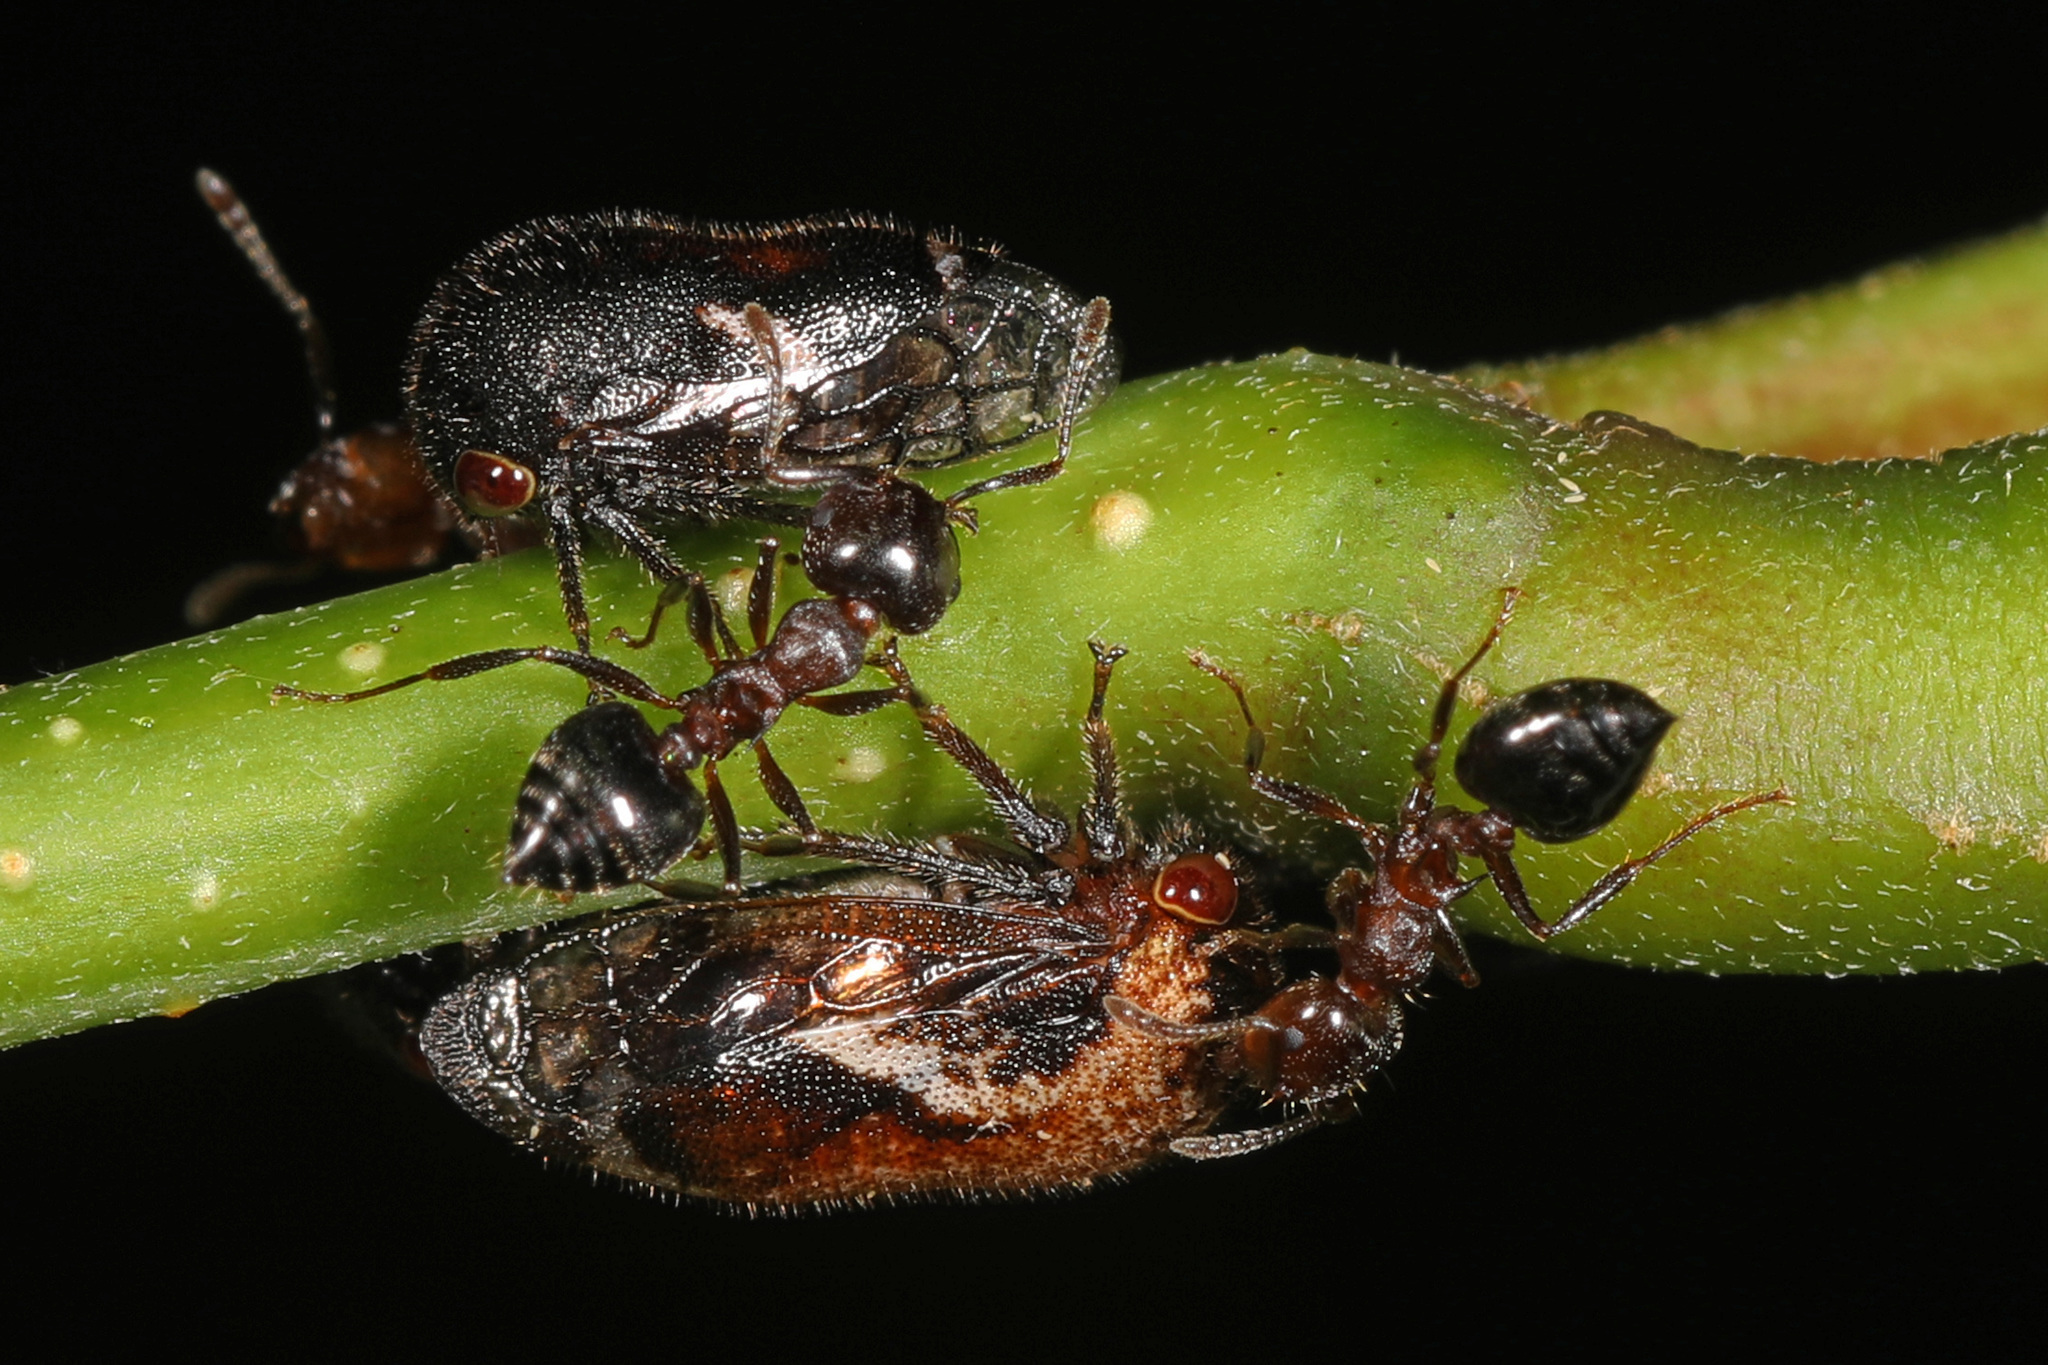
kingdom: Animalia
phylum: Arthropoda
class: Insecta
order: Hemiptera
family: Membracidae
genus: Vanduzea
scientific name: Vanduzea arquata
